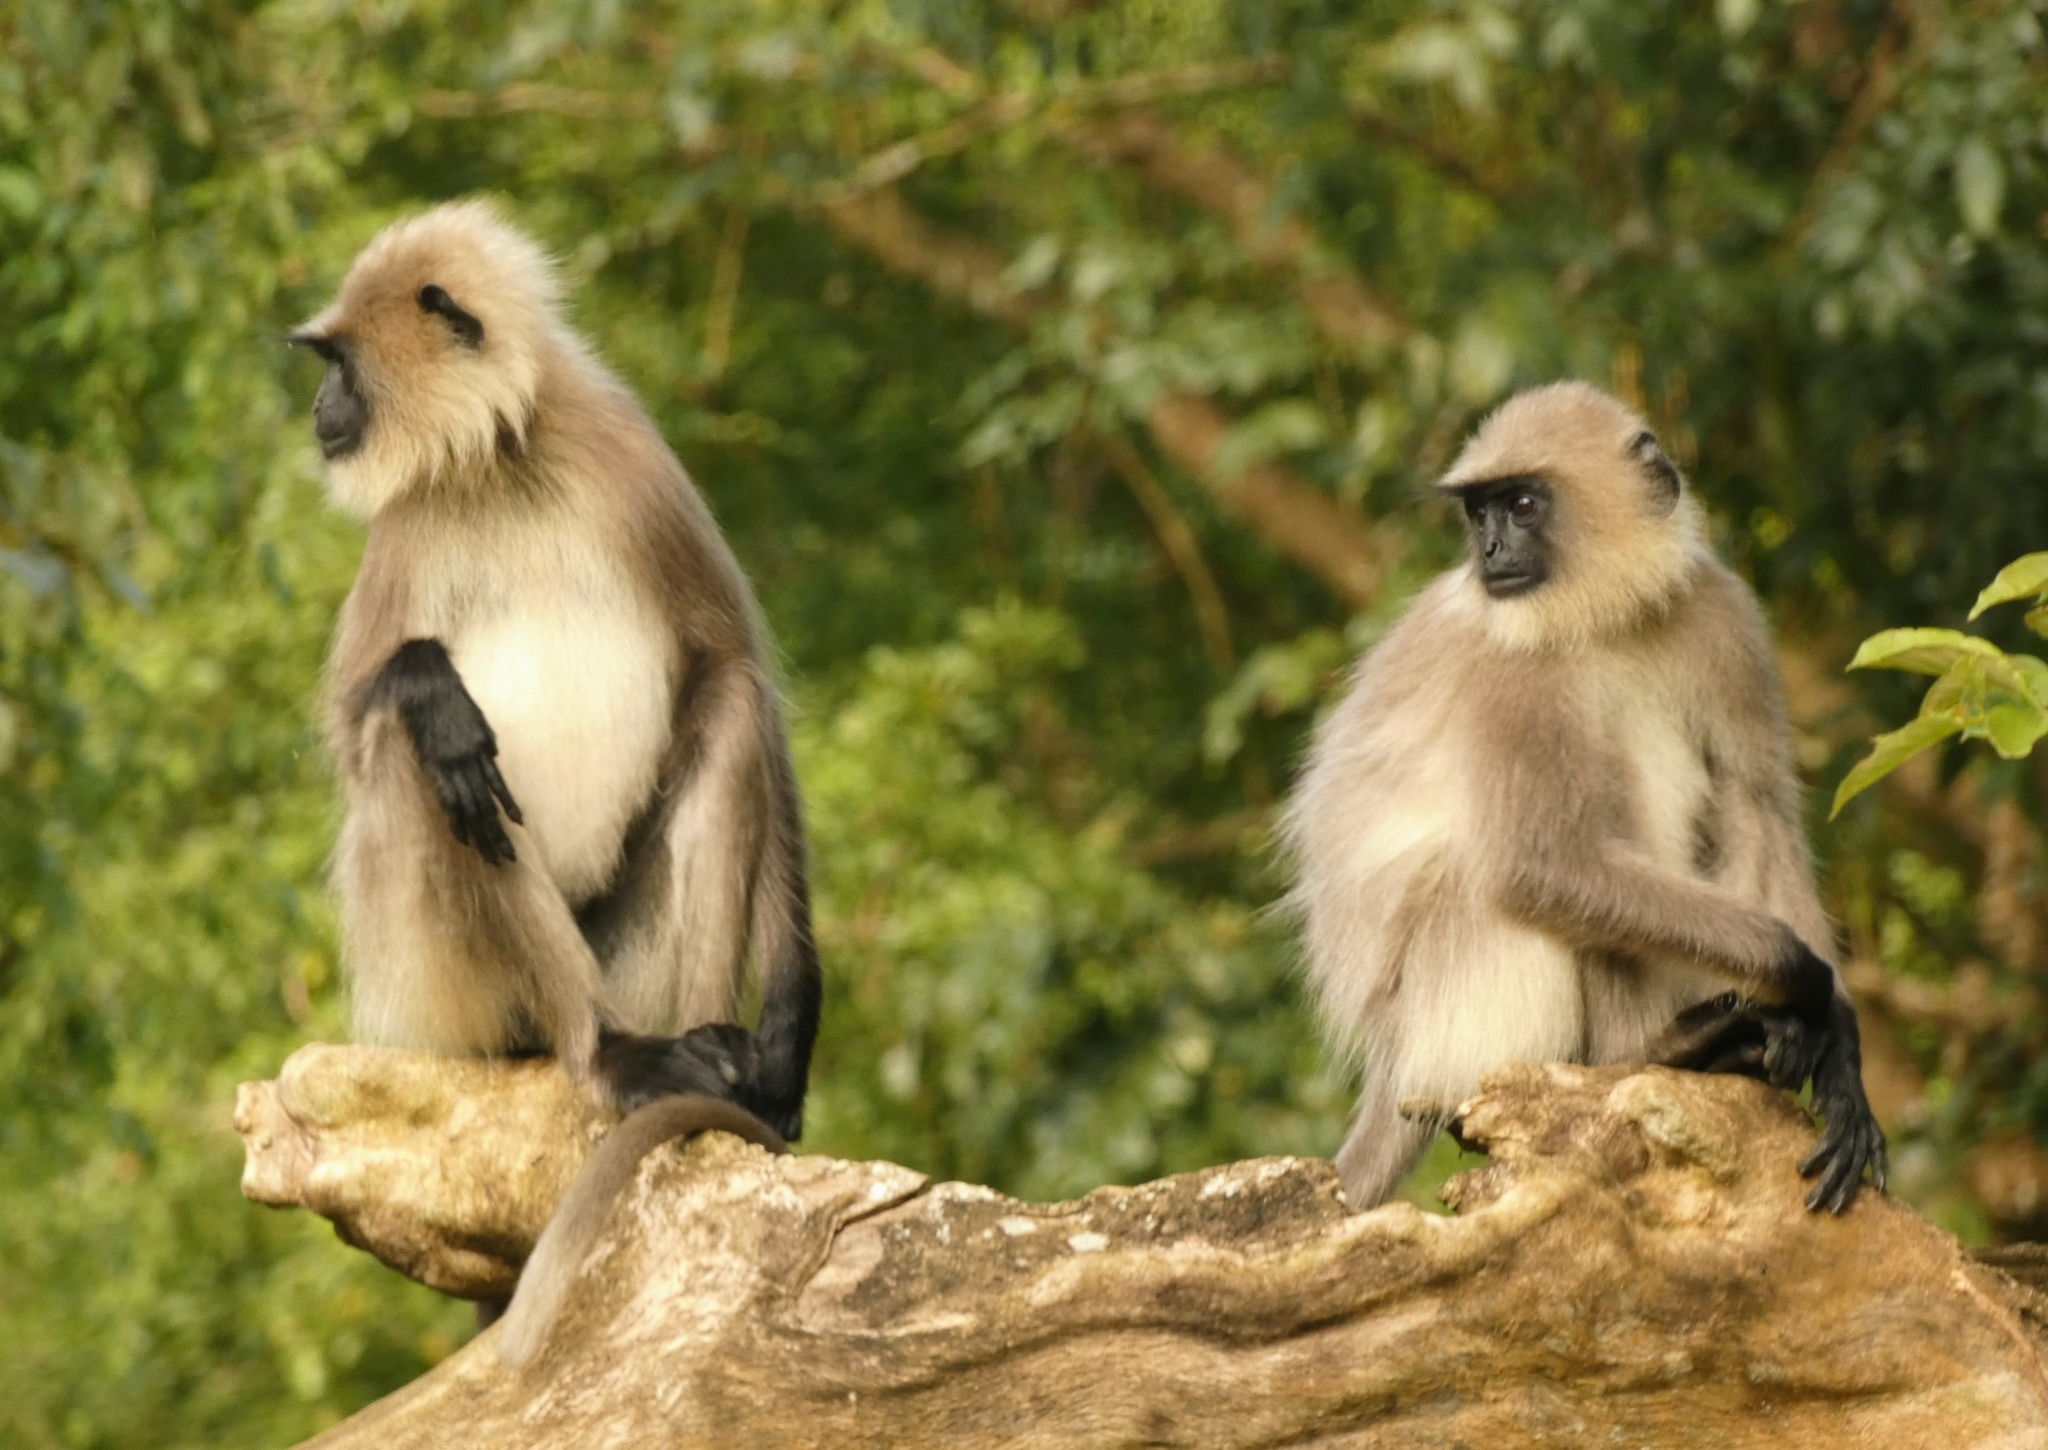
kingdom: Animalia
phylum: Chordata
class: Mammalia
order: Primates
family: Cercopithecidae
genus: Semnopithecus
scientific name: Semnopithecus hypoleucos
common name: Black-footed gray langur
